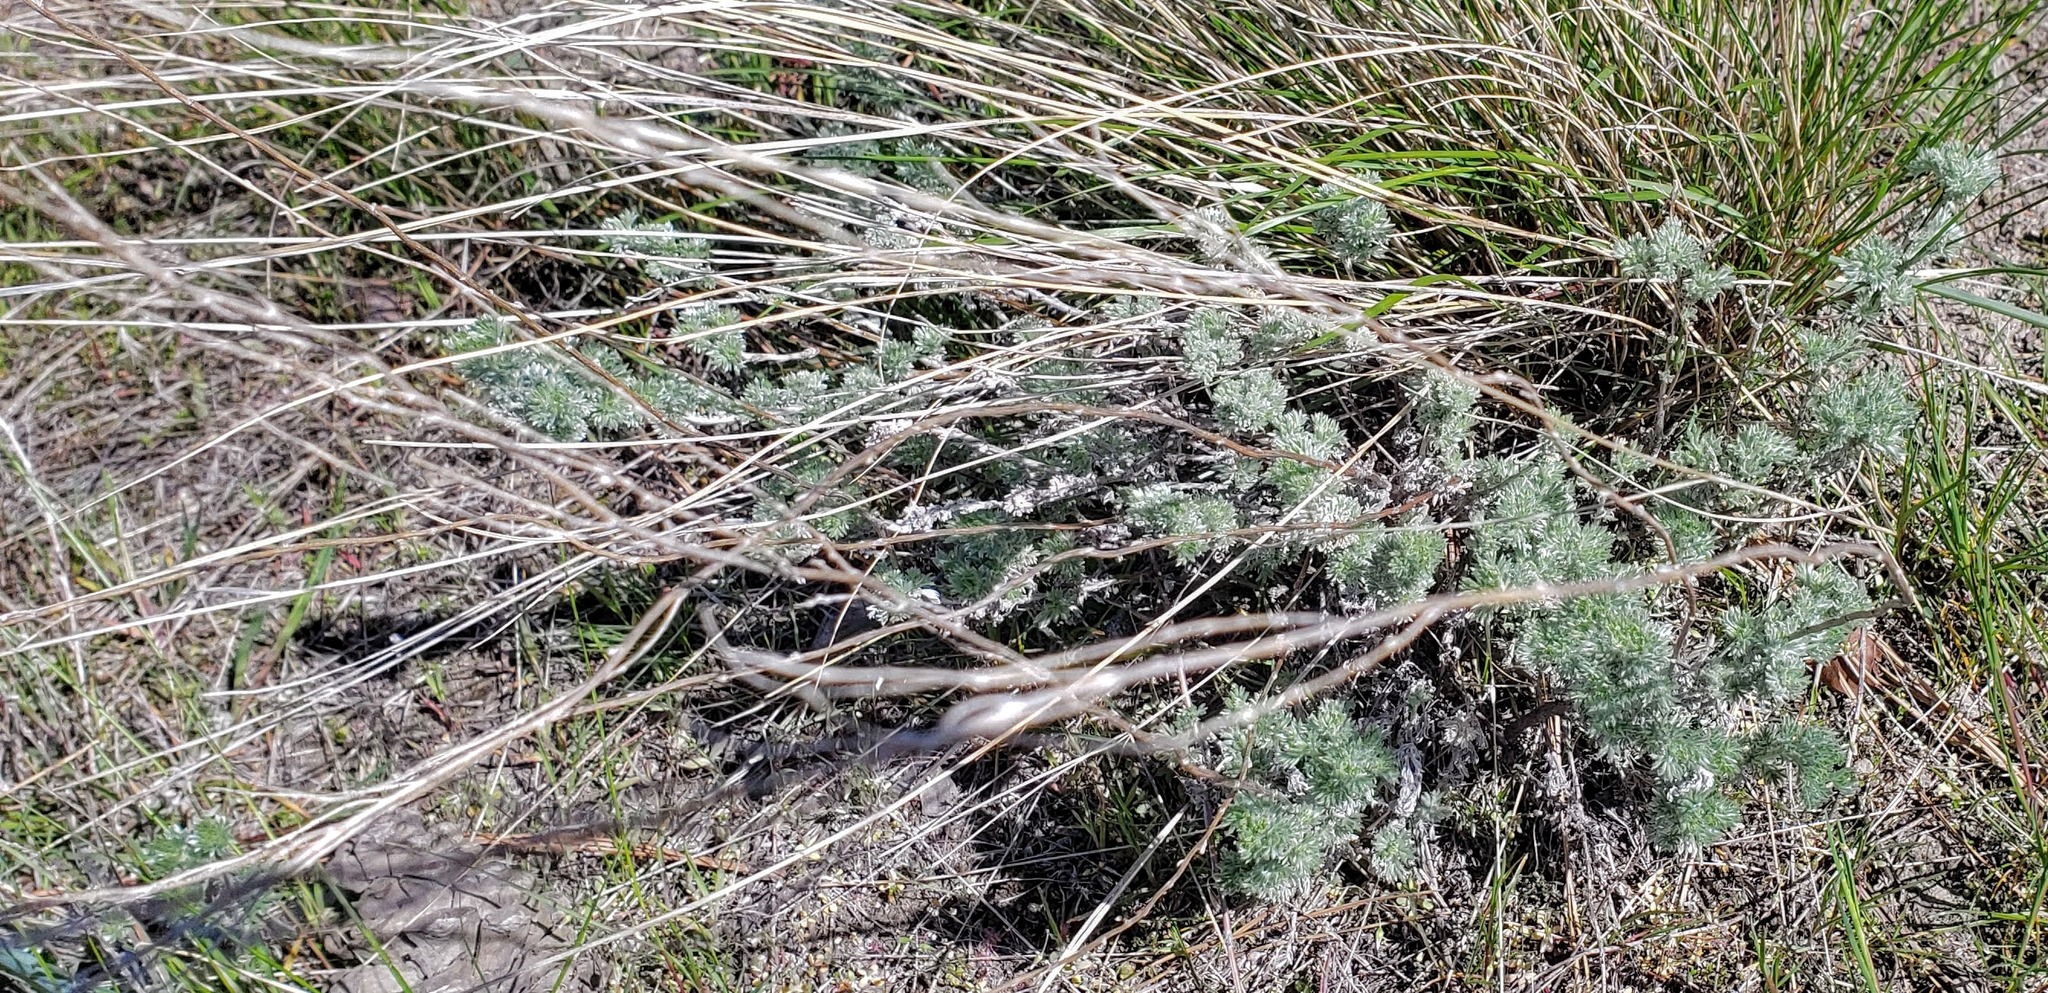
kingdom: Plantae
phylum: Tracheophyta
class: Magnoliopsida
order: Asterales
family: Asteraceae
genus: Artemisia
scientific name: Artemisia frigida
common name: Prairie sagewort
